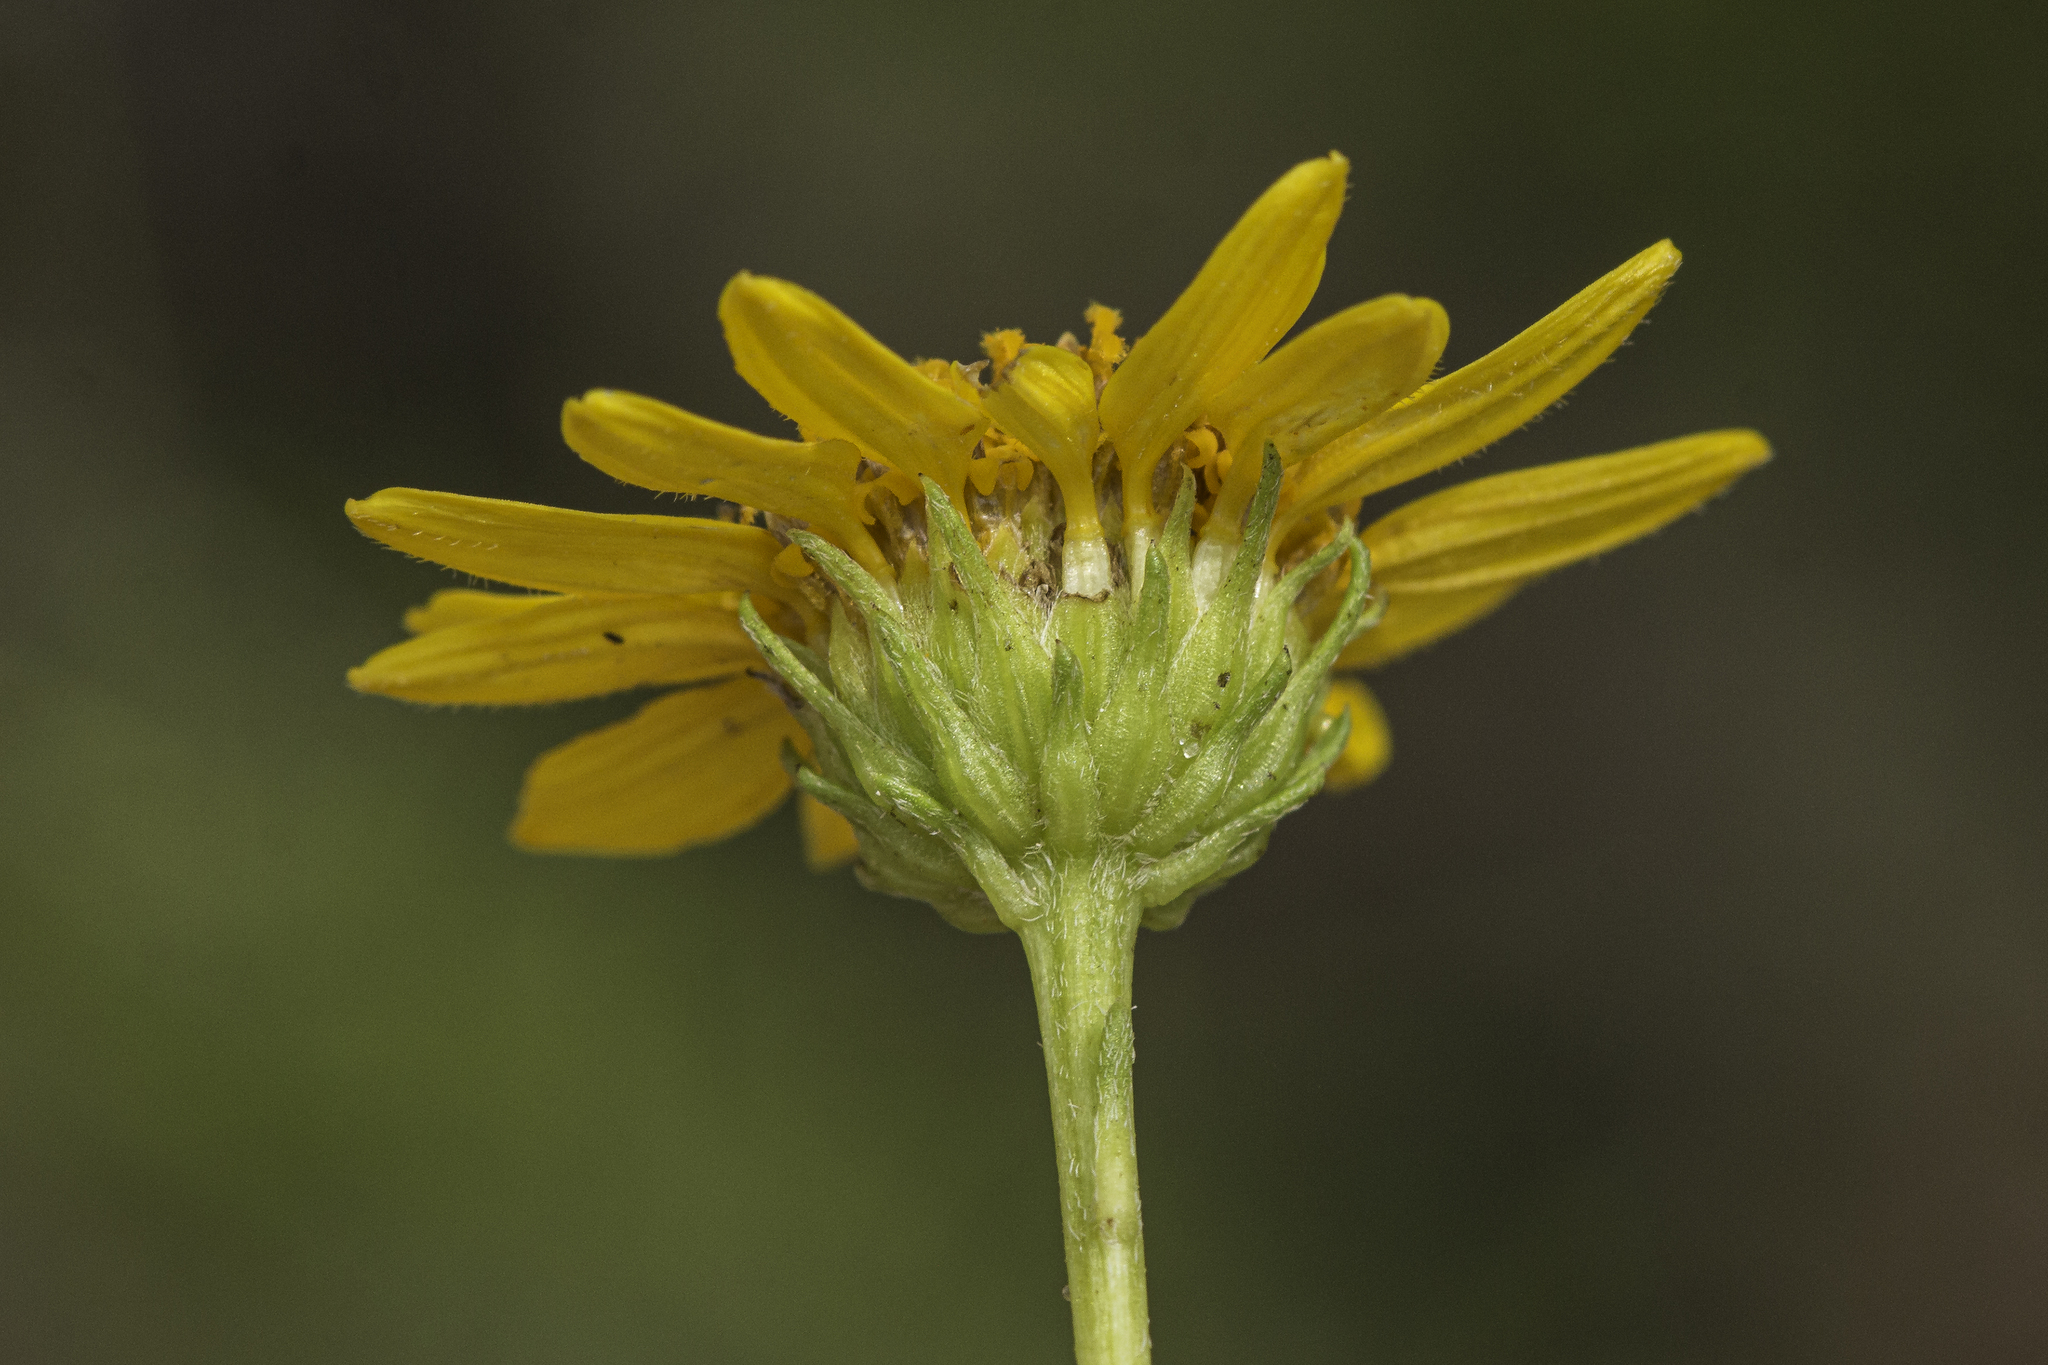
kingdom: Plantae
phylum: Tracheophyta
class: Magnoliopsida
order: Asterales
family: Asteraceae
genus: Sidneya
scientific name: Sidneya tenuifolia
